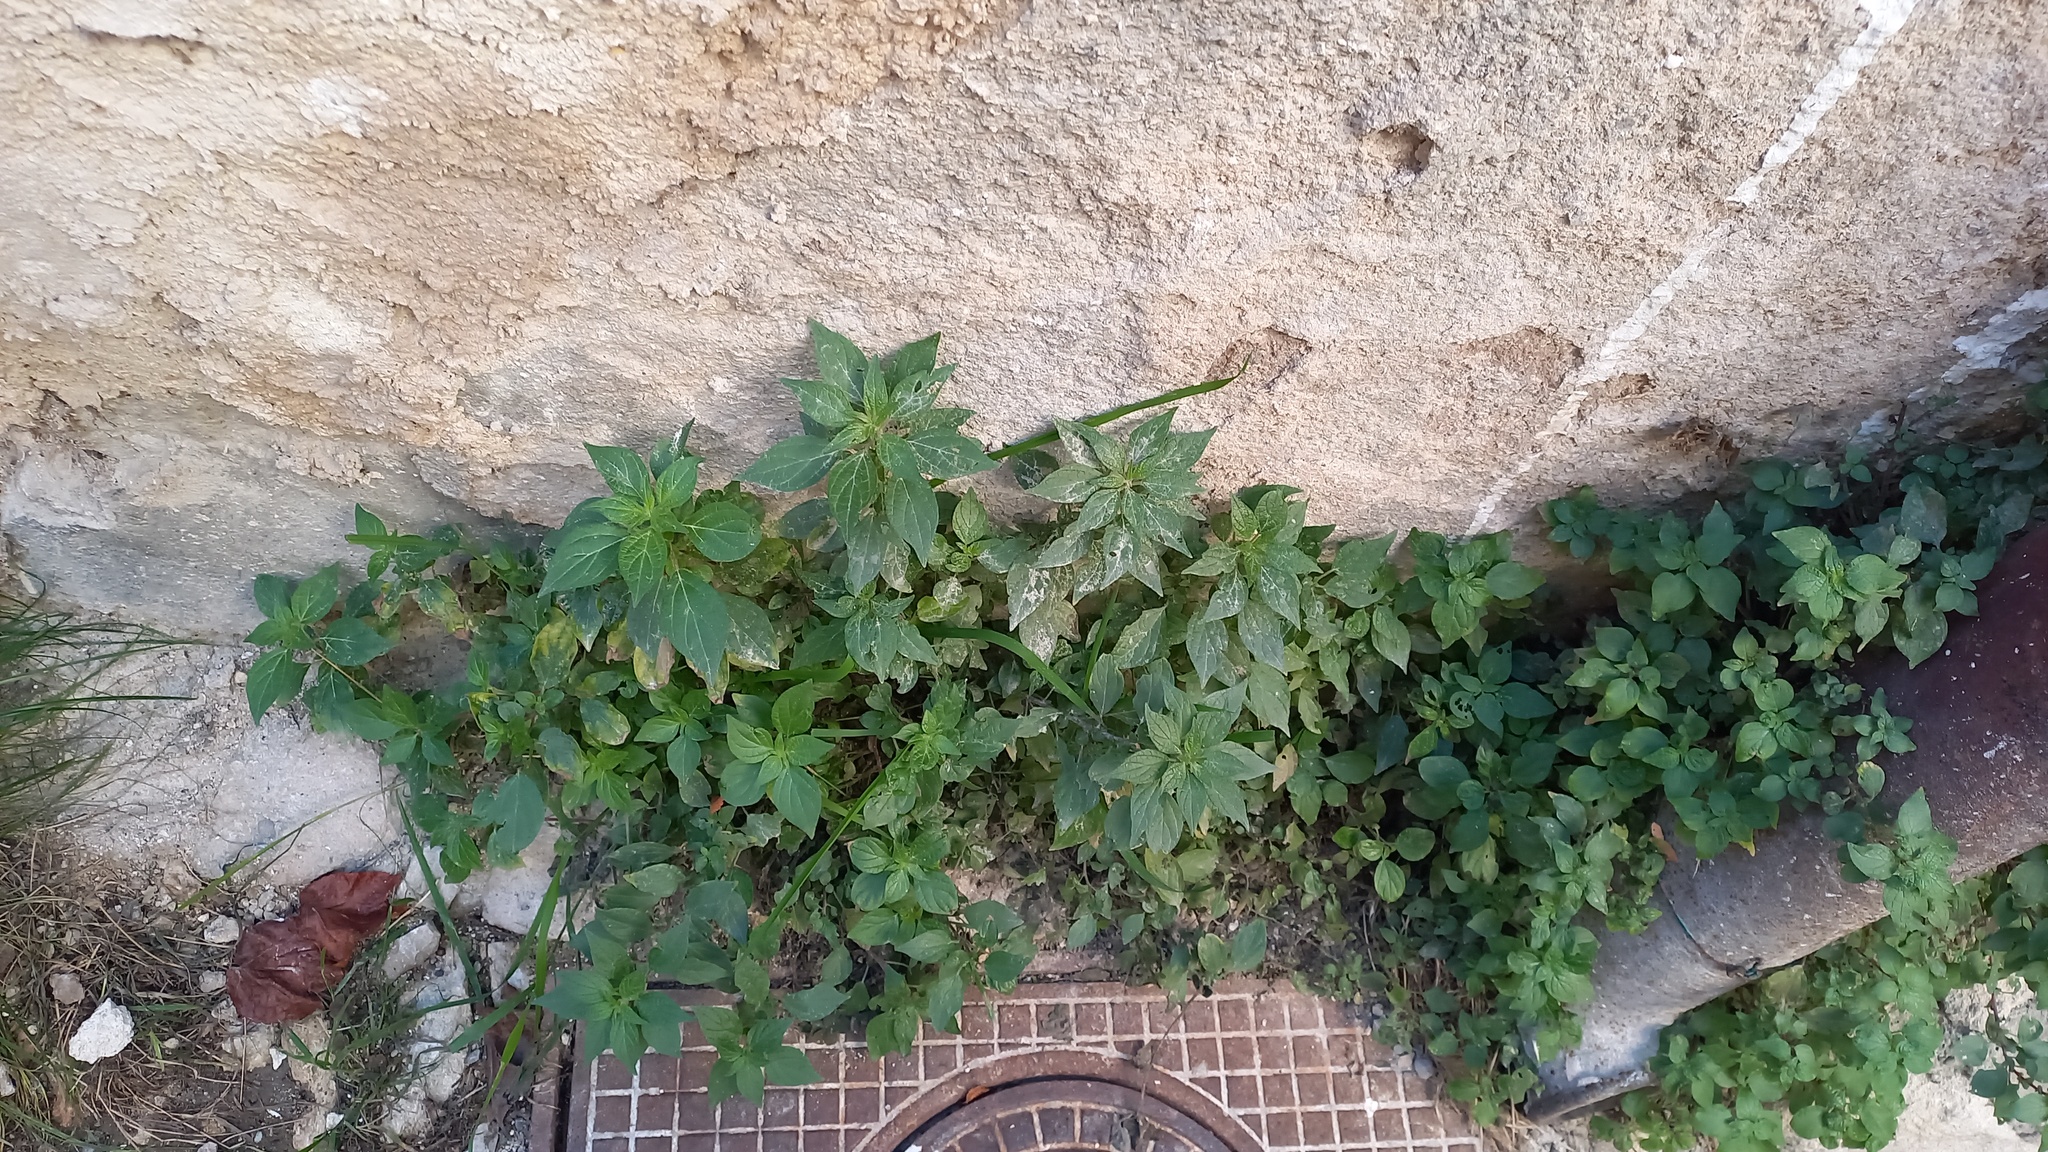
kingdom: Plantae
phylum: Tracheophyta
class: Magnoliopsida
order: Rosales
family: Urticaceae
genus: Parietaria
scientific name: Parietaria judaica
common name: Pellitory-of-the-wall
